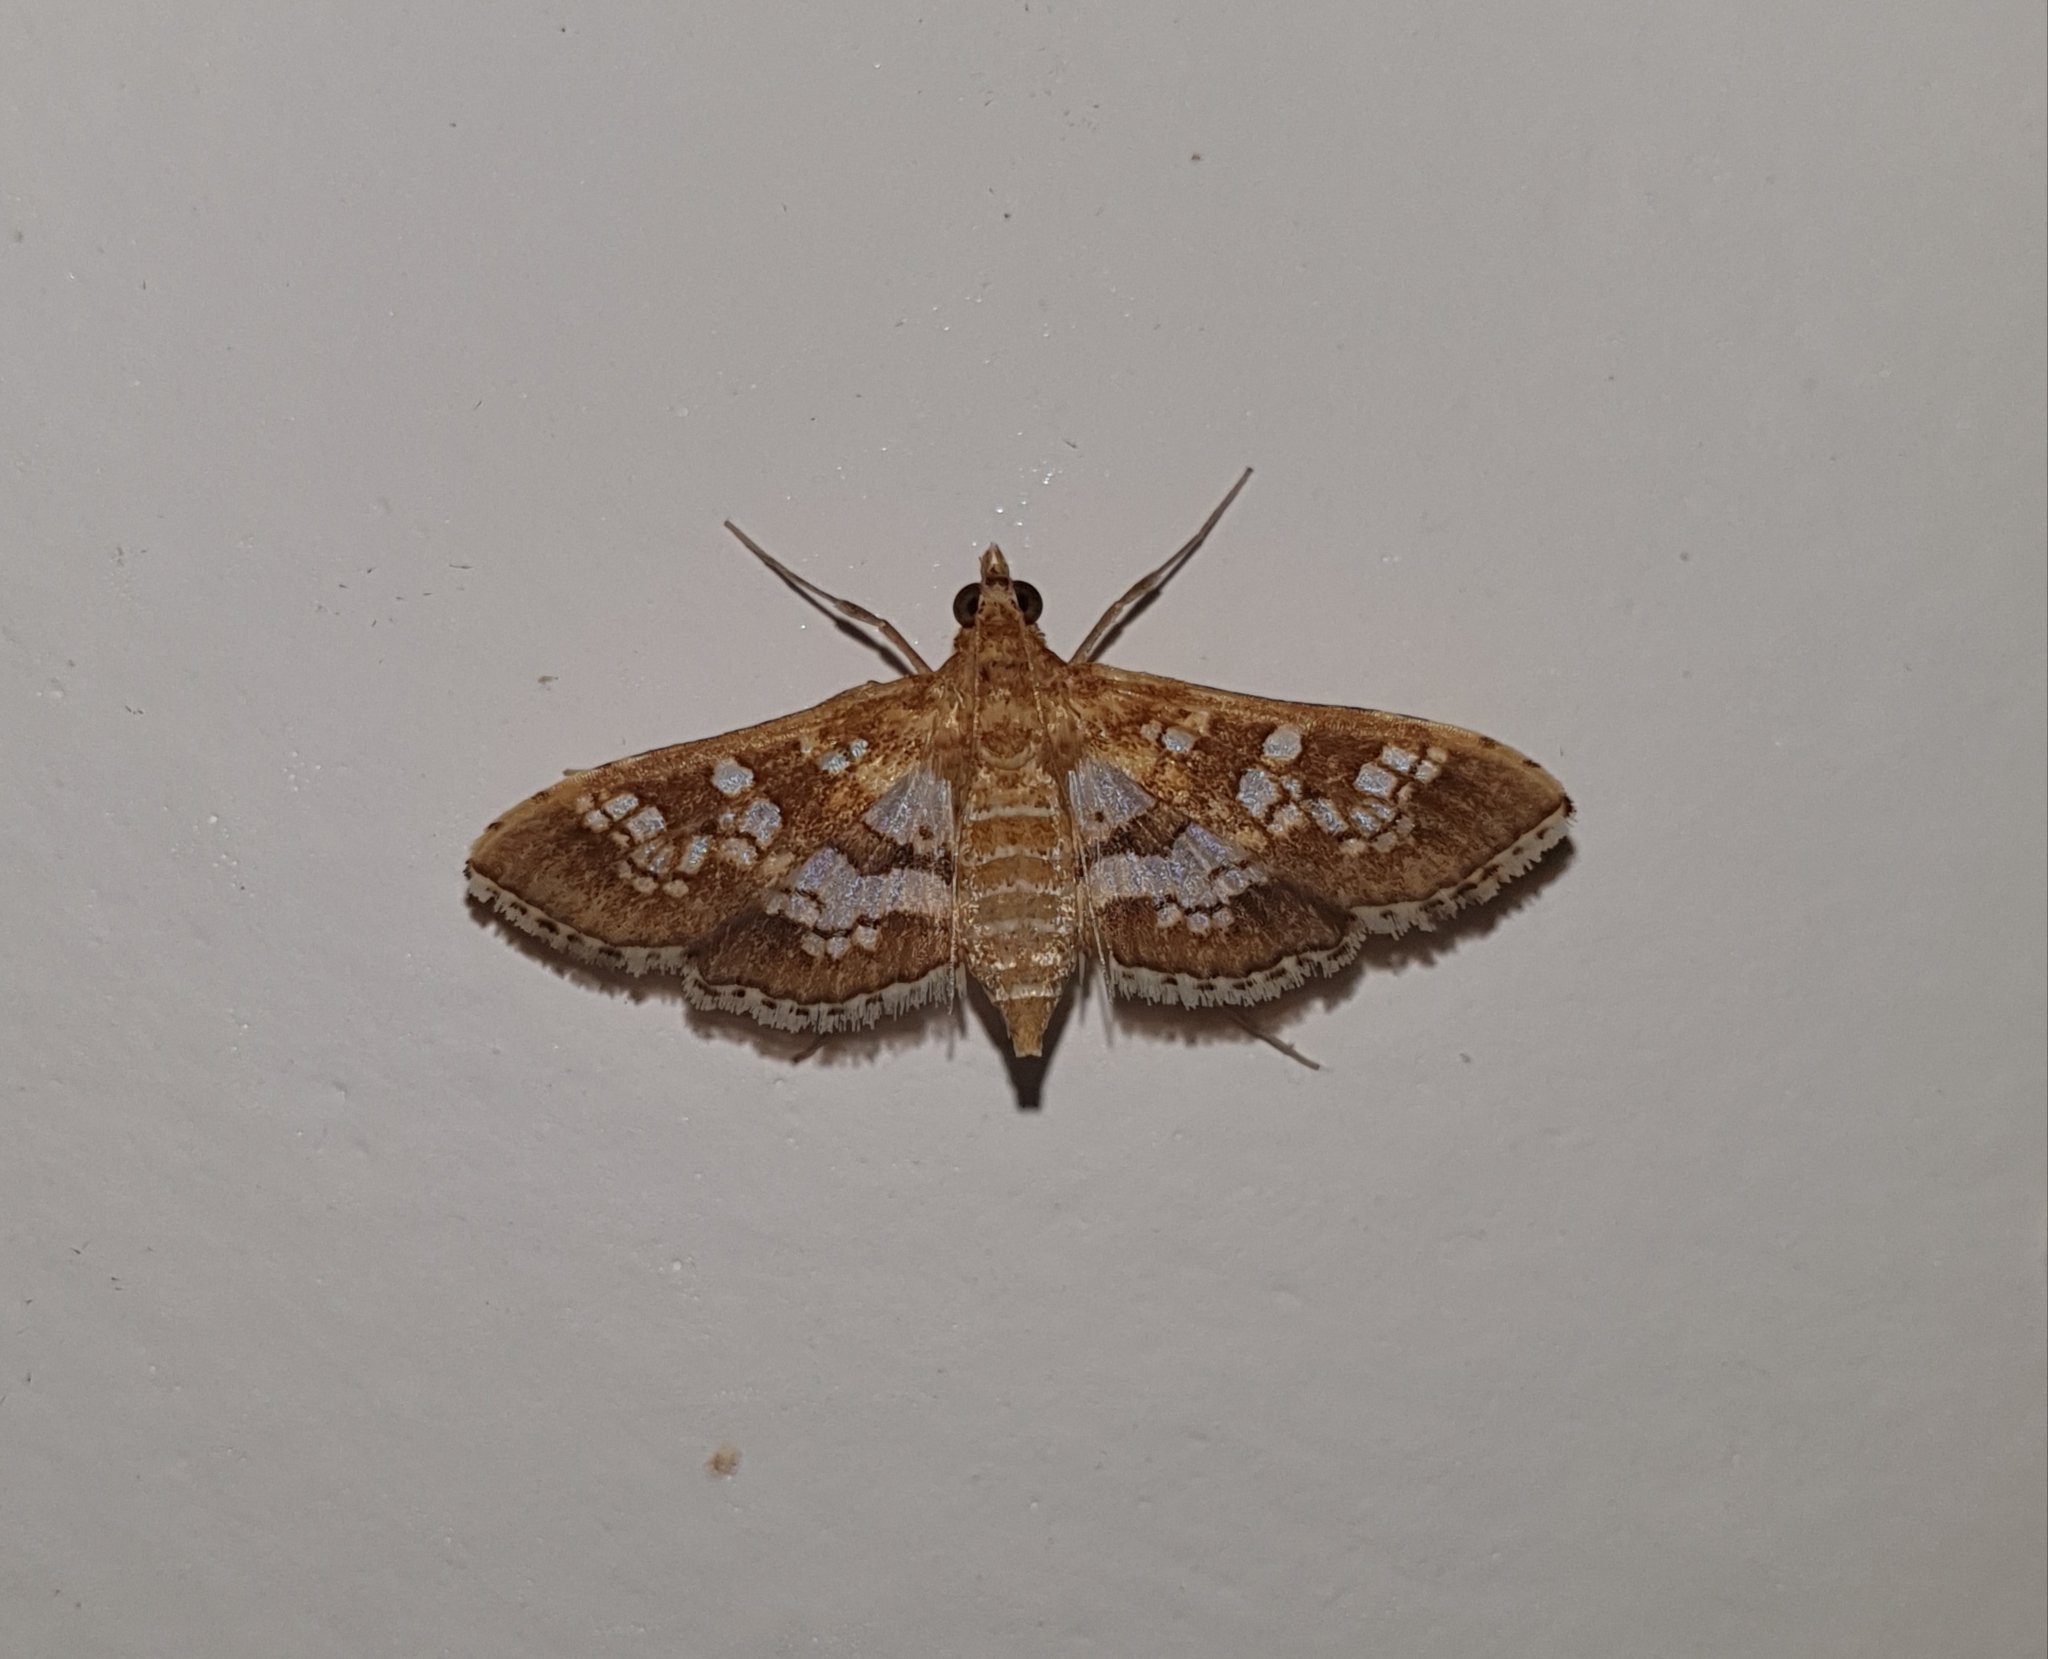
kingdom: Animalia
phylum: Arthropoda
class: Insecta
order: Lepidoptera
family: Crambidae
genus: Sameodes
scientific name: Sameodes cancellalis
